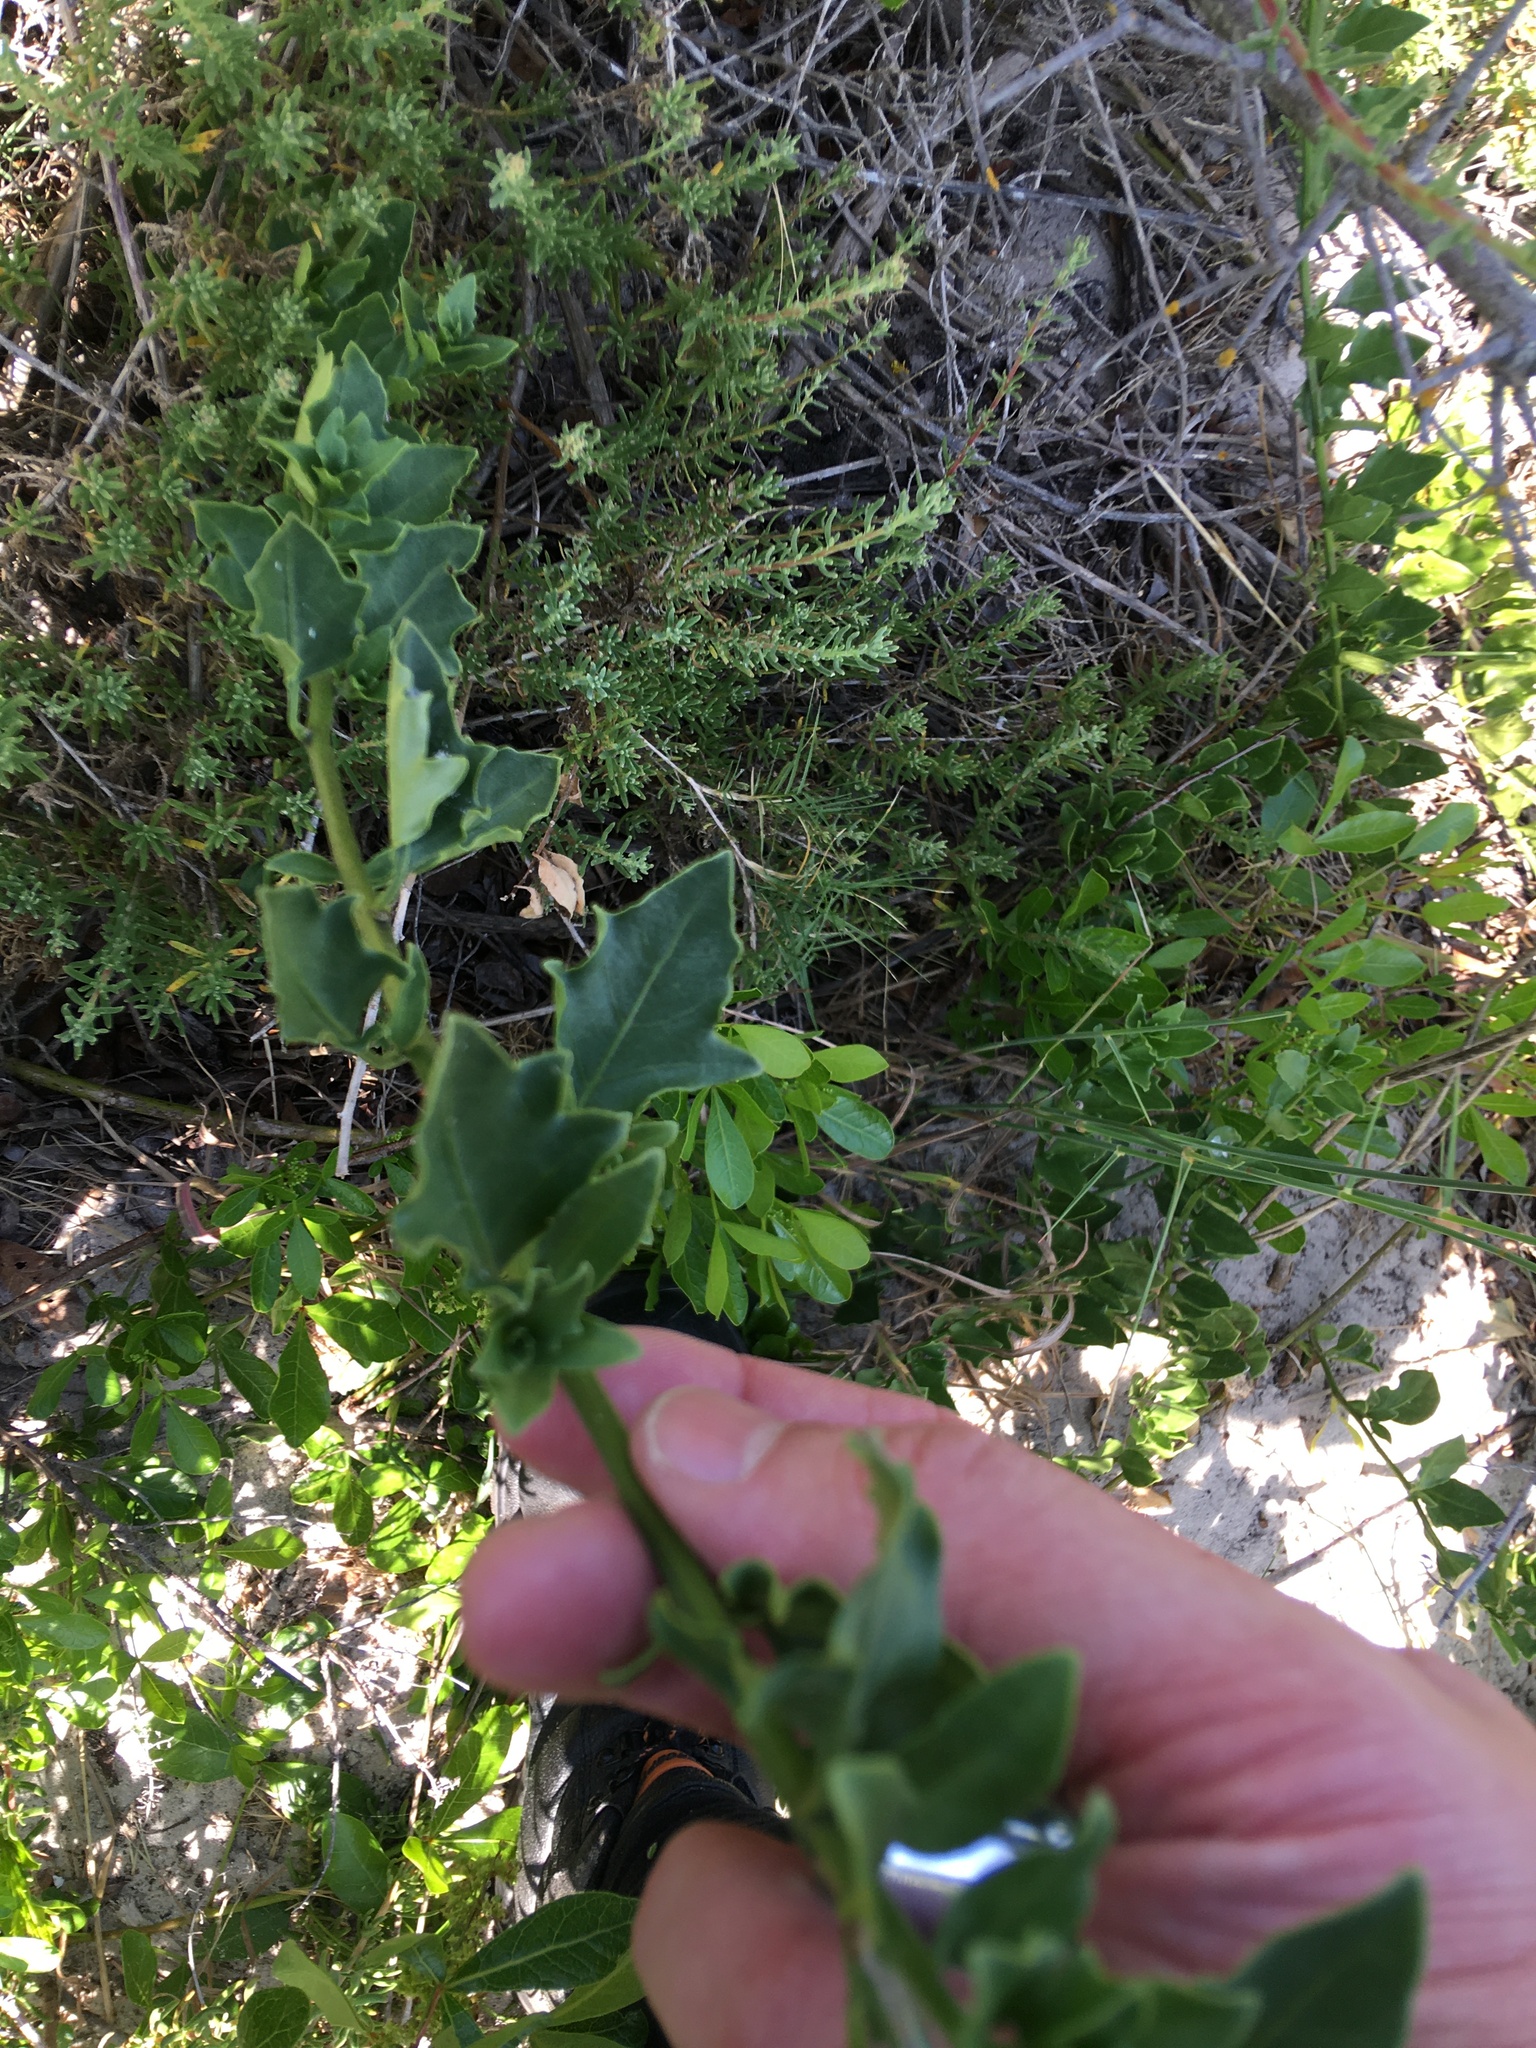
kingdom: Plantae
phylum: Tracheophyta
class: Magnoliopsida
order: Solanales
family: Solanaceae
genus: Solanum
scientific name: Solanum africanum
